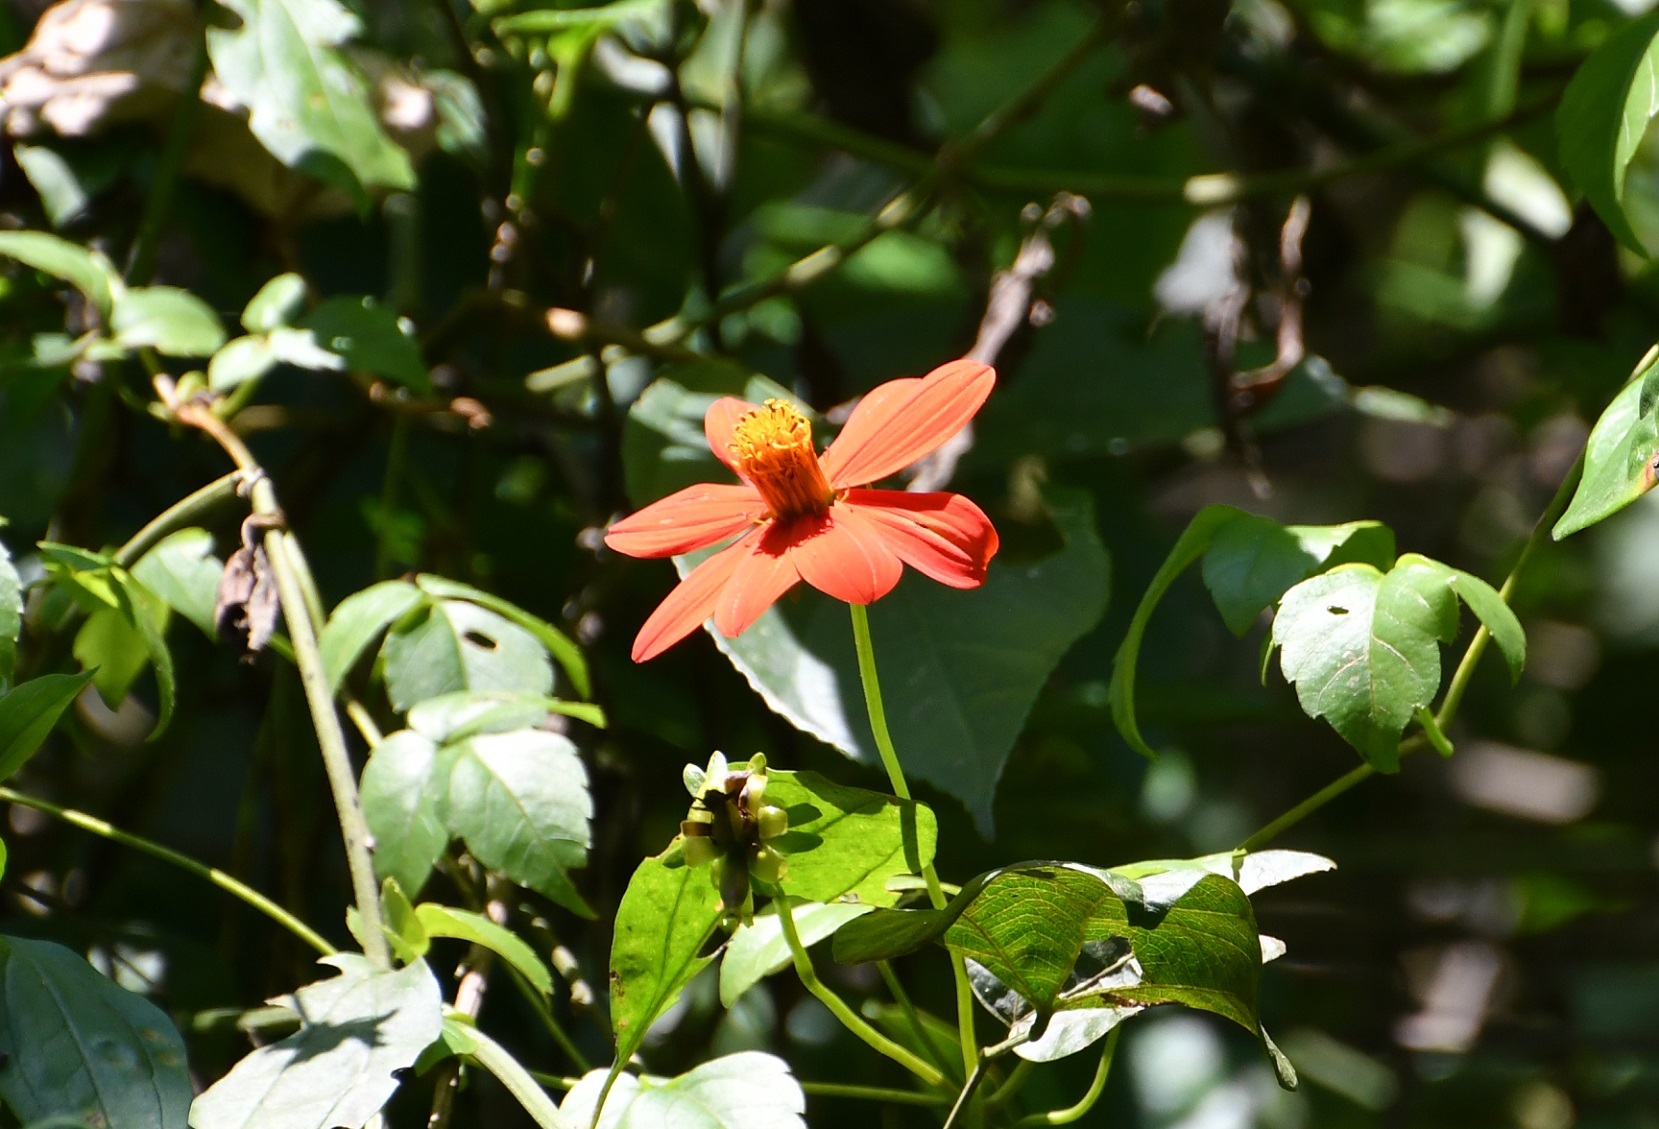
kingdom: Plantae
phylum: Tracheophyta
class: Magnoliopsida
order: Asterales
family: Asteraceae
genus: Hidalgoa
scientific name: Hidalgoa ternata
